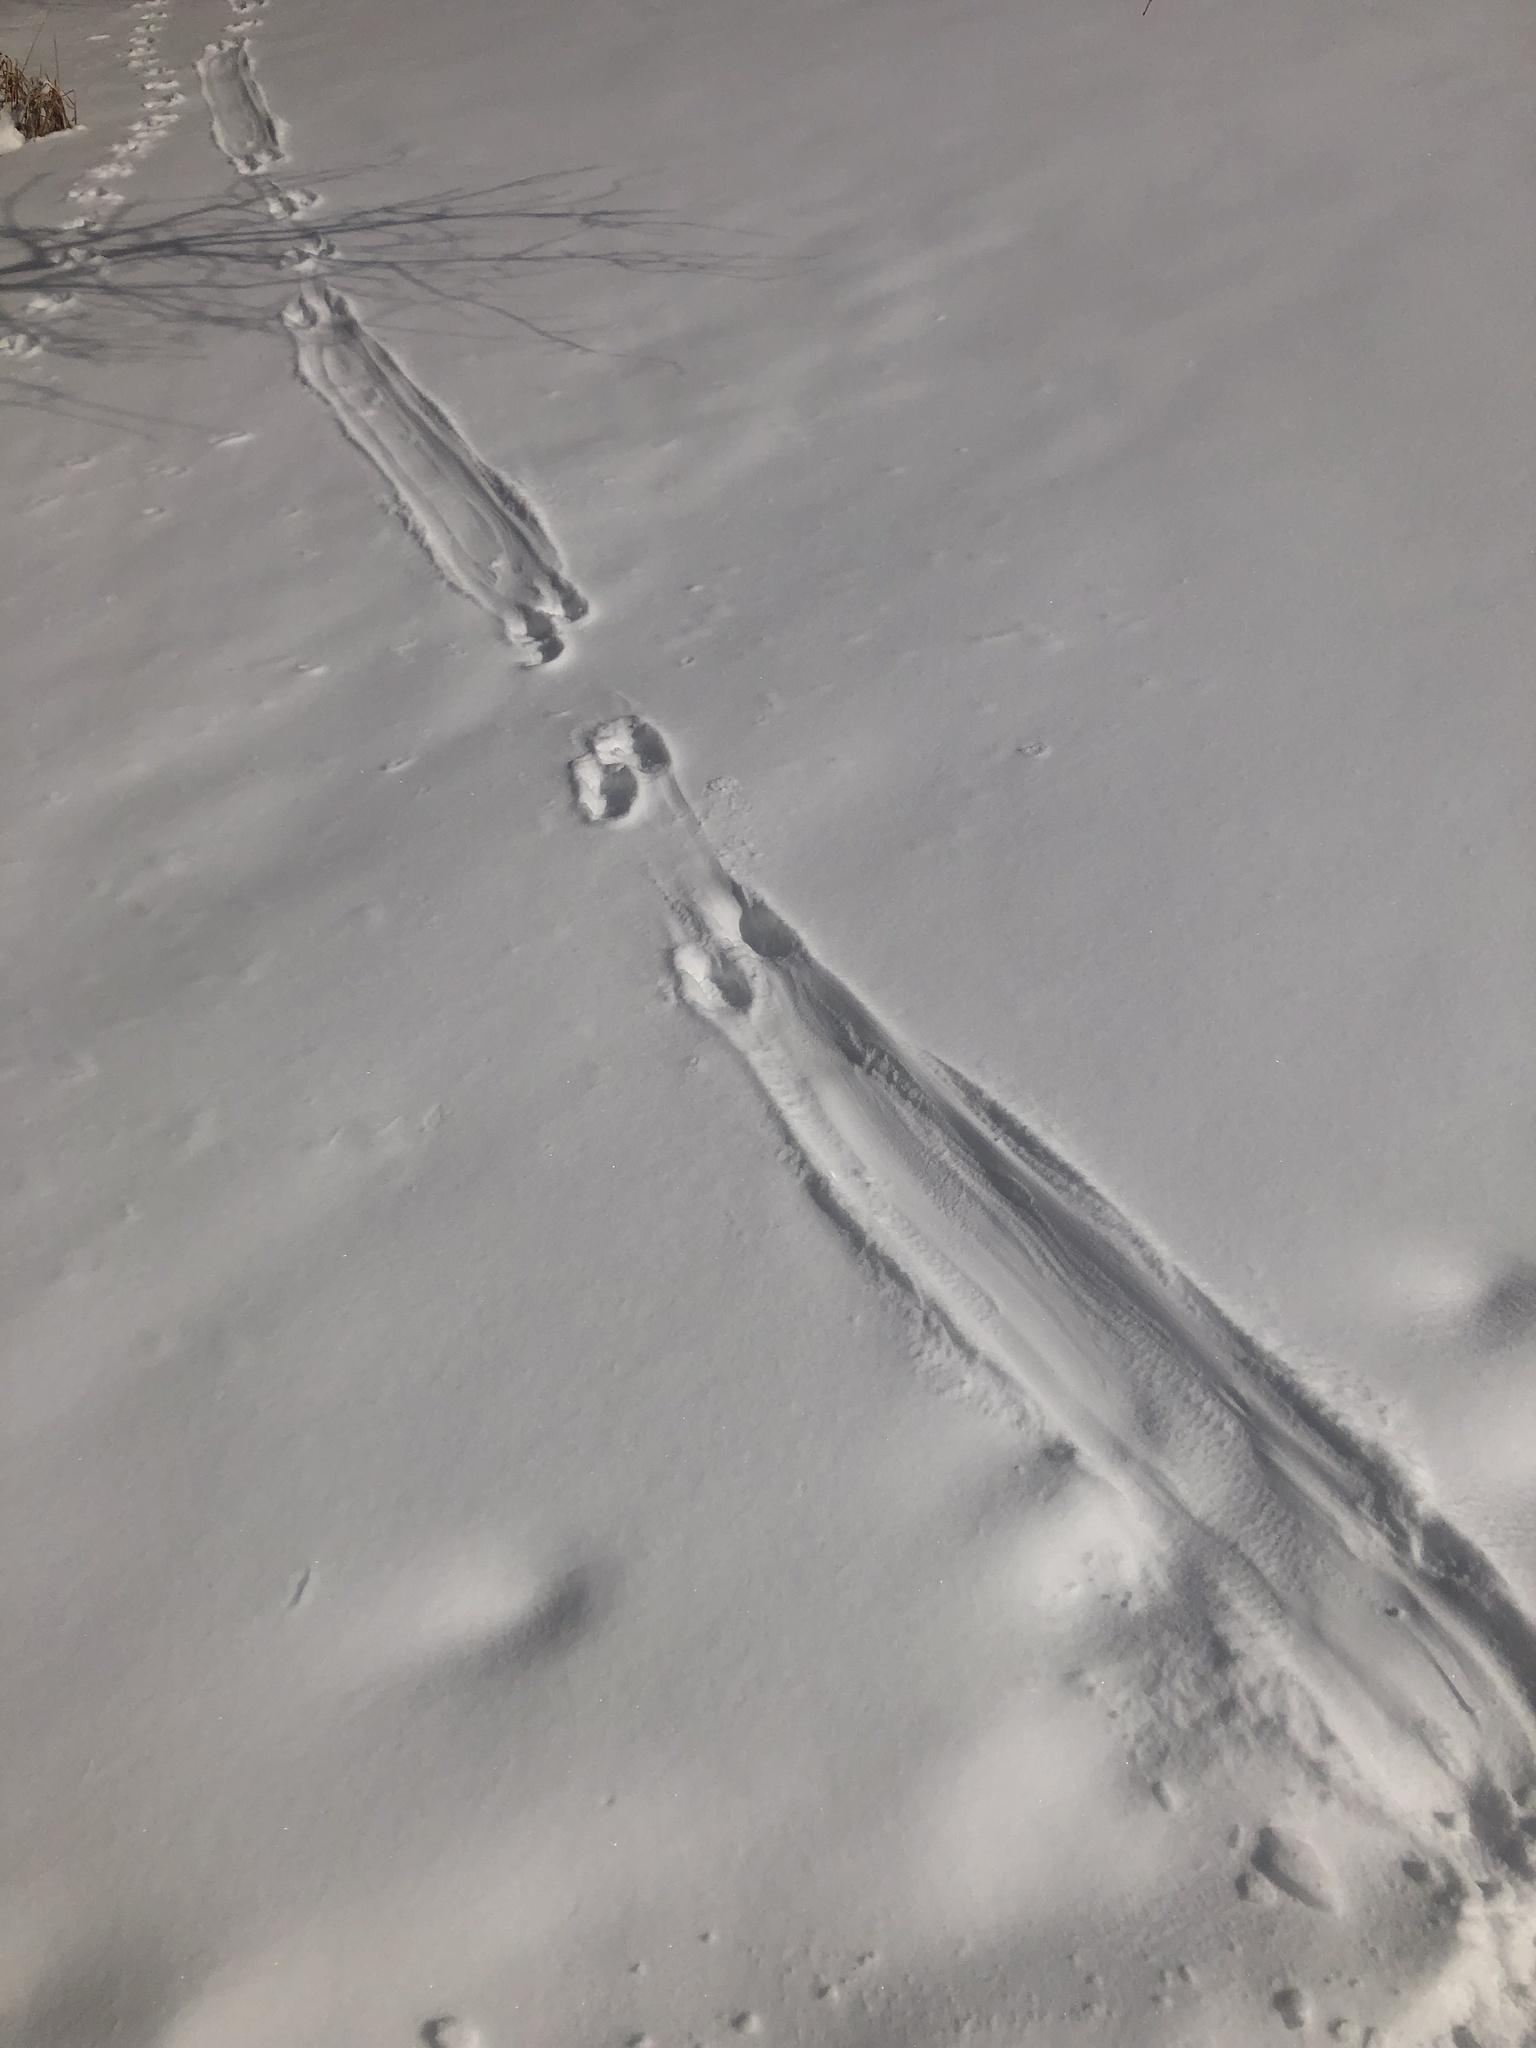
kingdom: Animalia
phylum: Chordata
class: Mammalia
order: Carnivora
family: Mustelidae
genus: Lontra
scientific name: Lontra canadensis
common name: North american river otter
